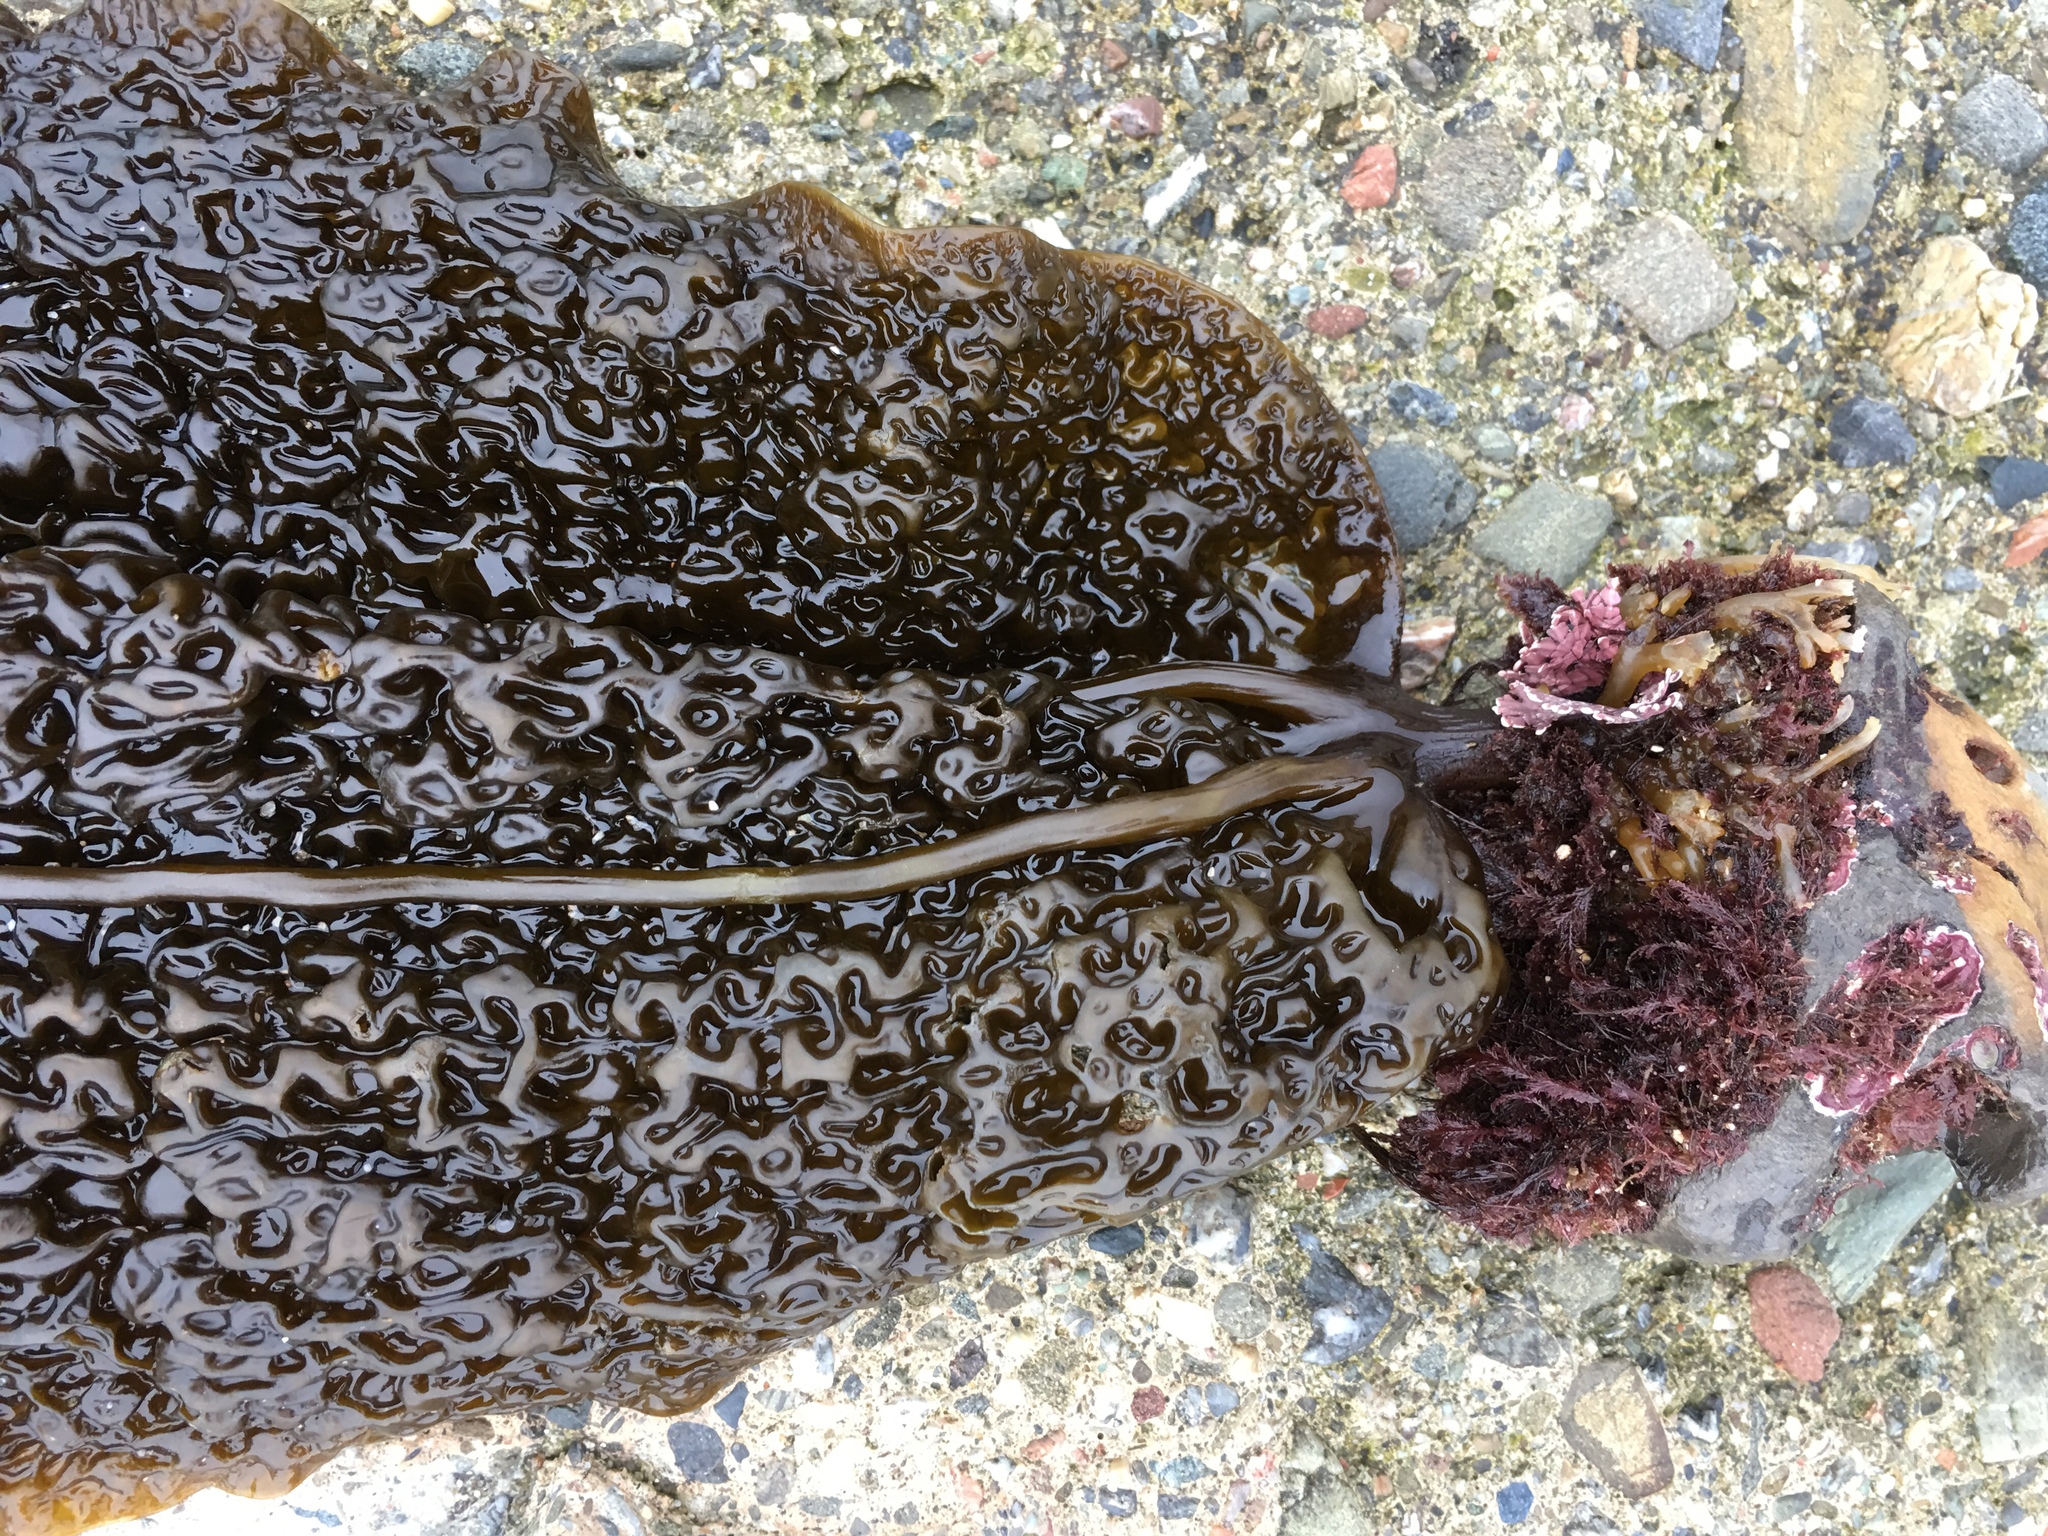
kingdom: Chromista
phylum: Ochrophyta
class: Phaeophyceae
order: Laminariales
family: Costariaceae
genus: Costaria
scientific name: Costaria costata
